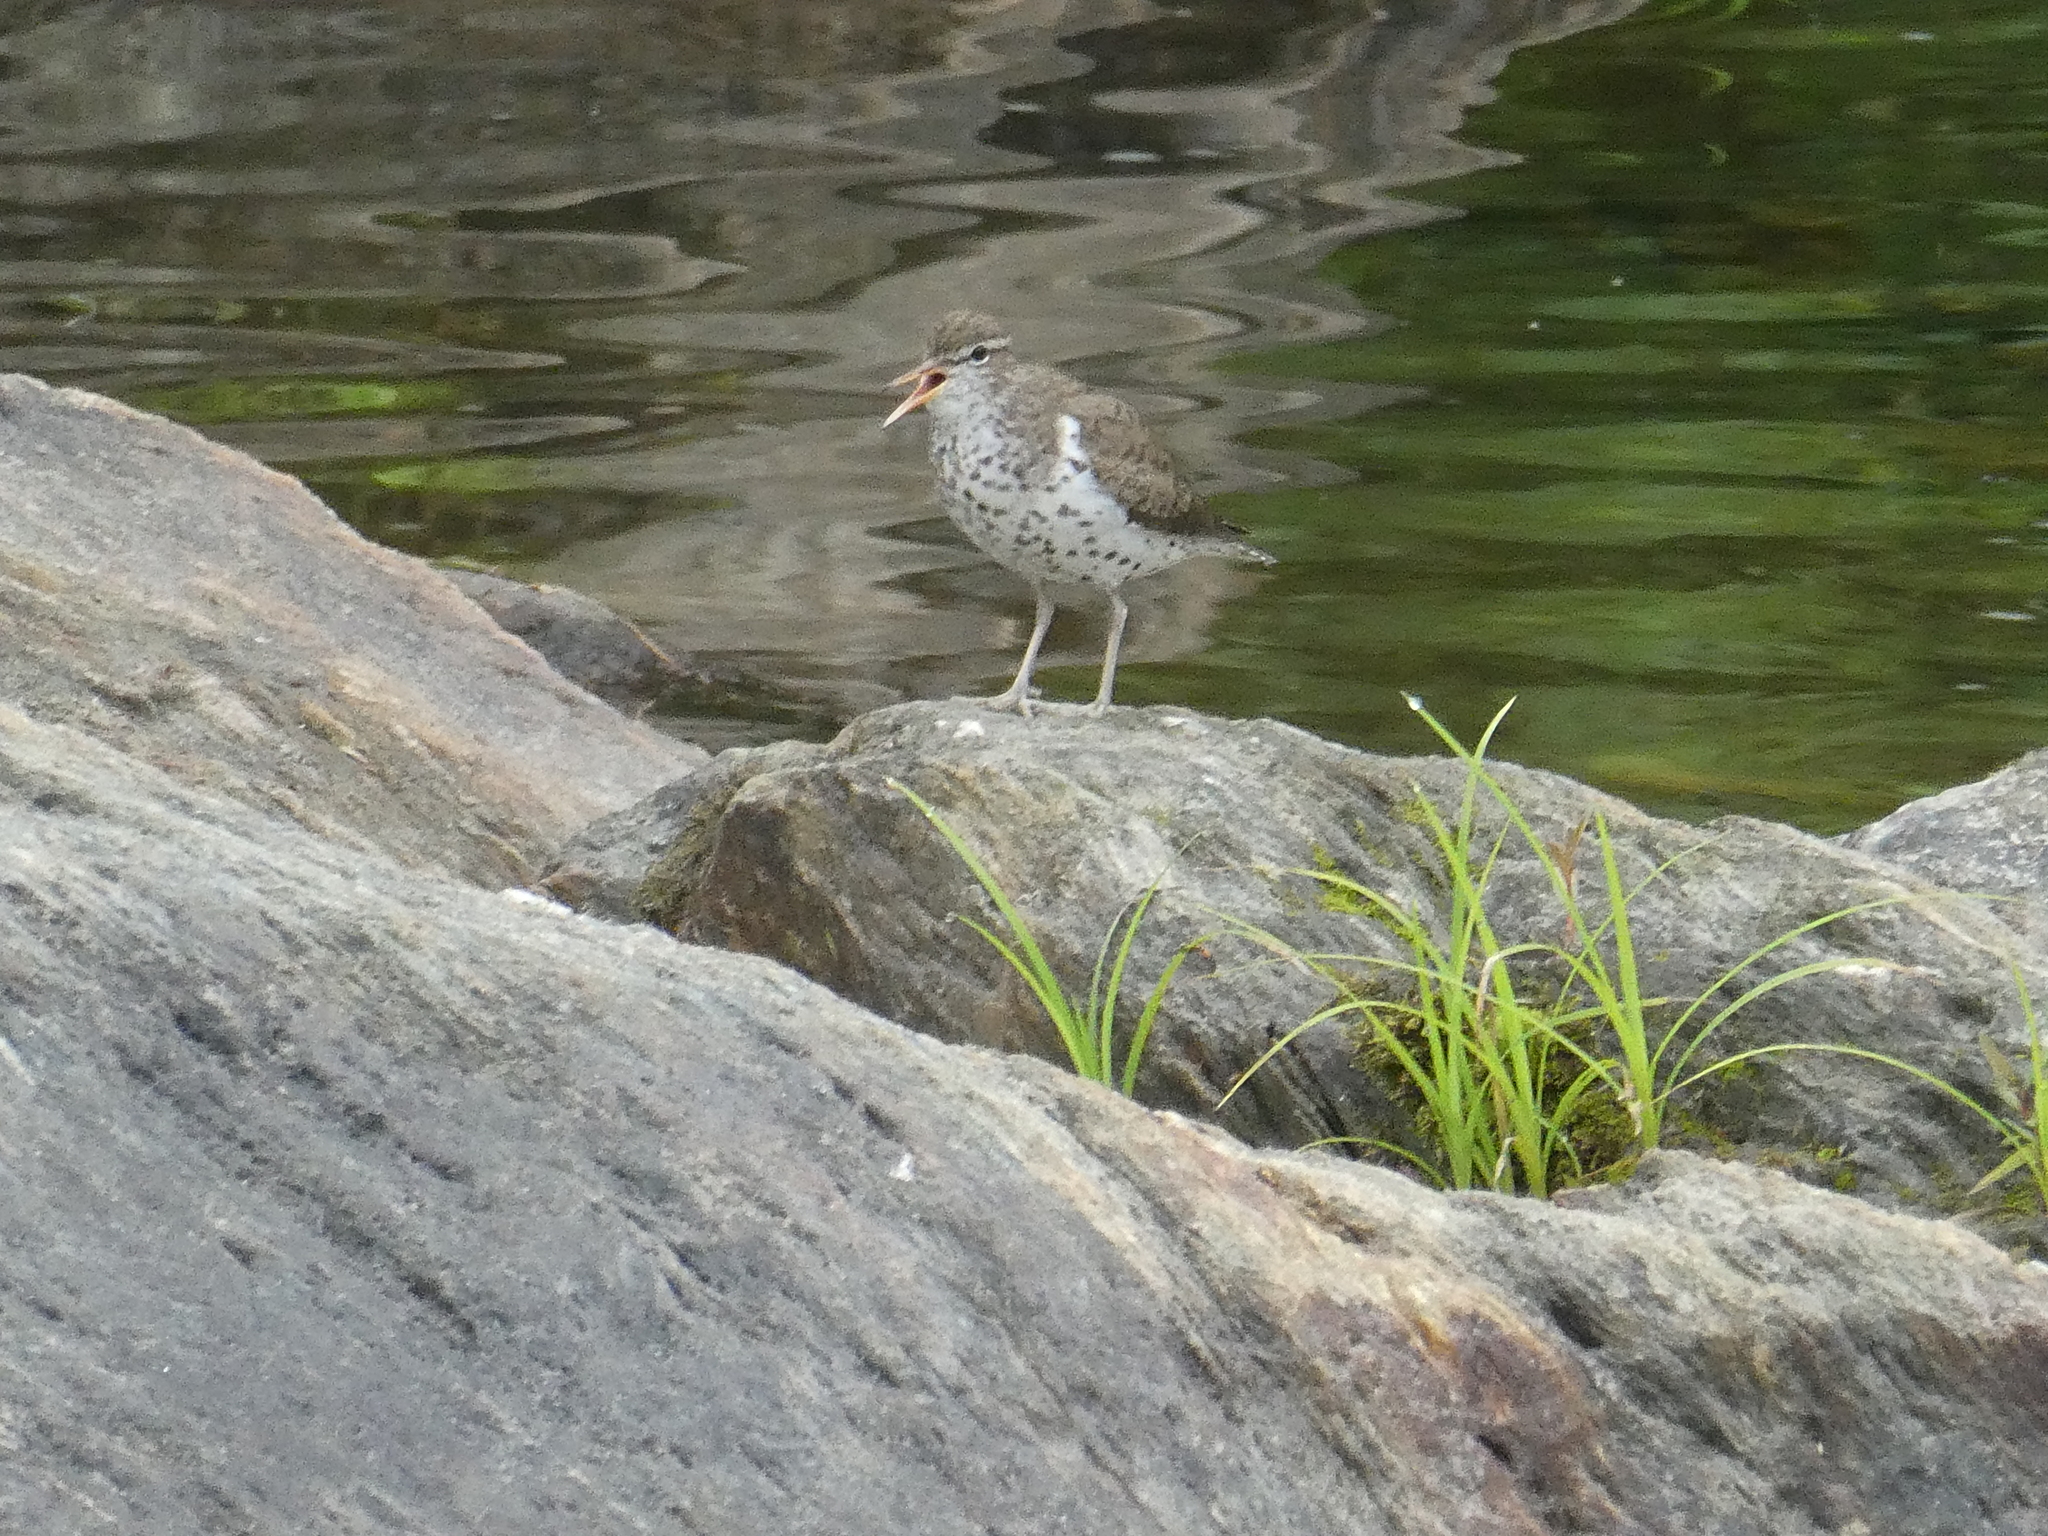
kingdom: Animalia
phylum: Chordata
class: Aves
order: Charadriiformes
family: Scolopacidae
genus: Actitis
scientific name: Actitis macularius
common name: Spotted sandpiper
